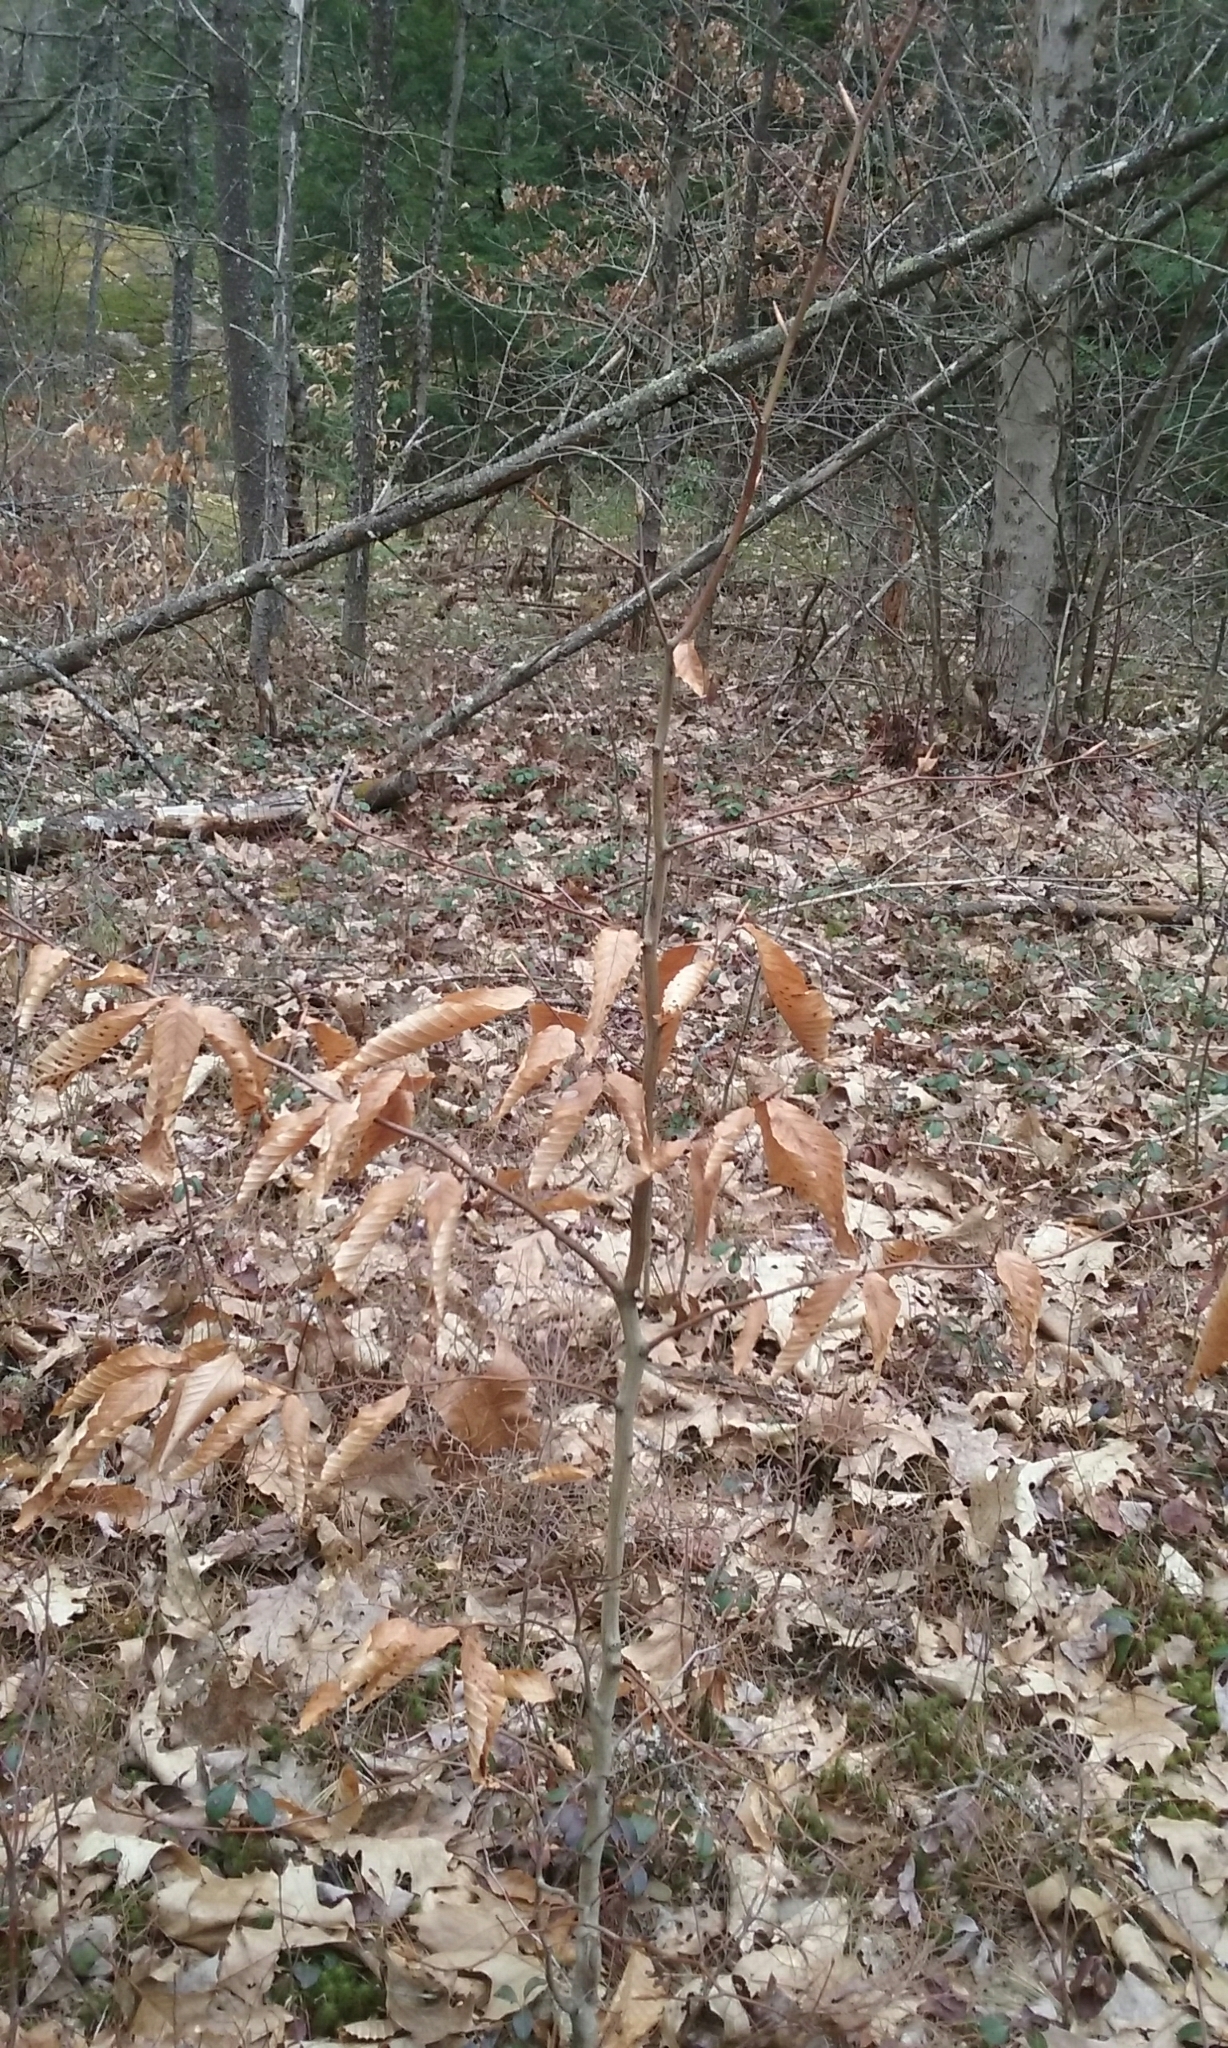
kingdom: Plantae
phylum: Tracheophyta
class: Magnoliopsida
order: Fagales
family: Fagaceae
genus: Fagus
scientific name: Fagus grandifolia
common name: American beech
